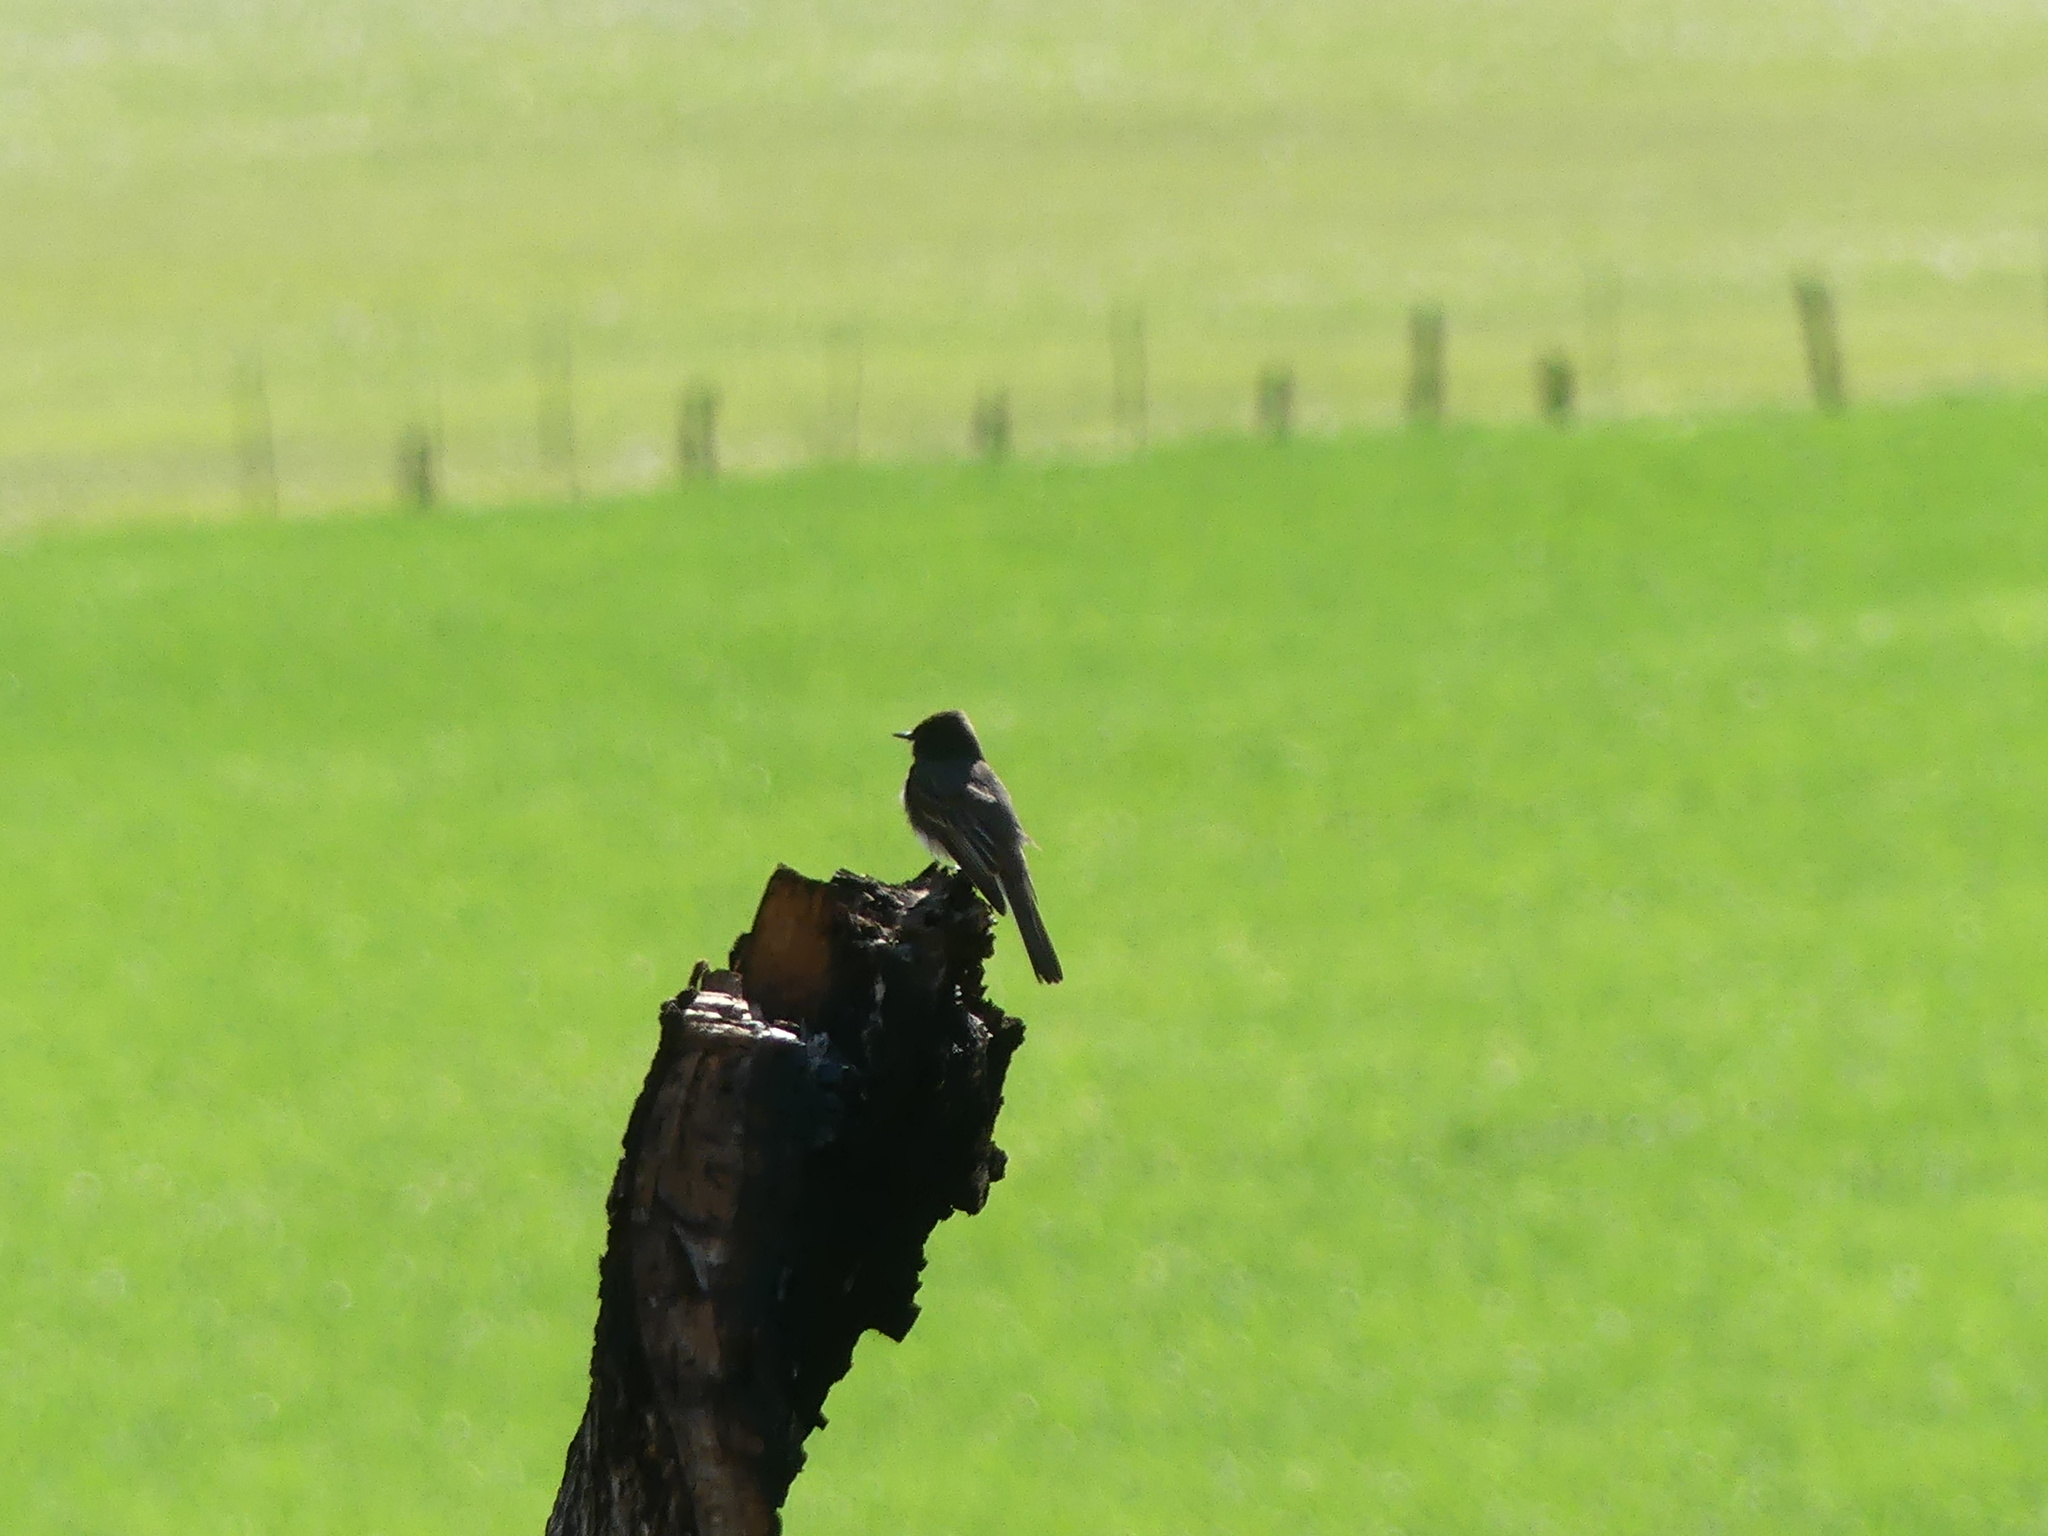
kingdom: Animalia
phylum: Chordata
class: Aves
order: Passeriformes
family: Tyrannidae
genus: Sayornis
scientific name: Sayornis nigricans
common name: Black phoebe
